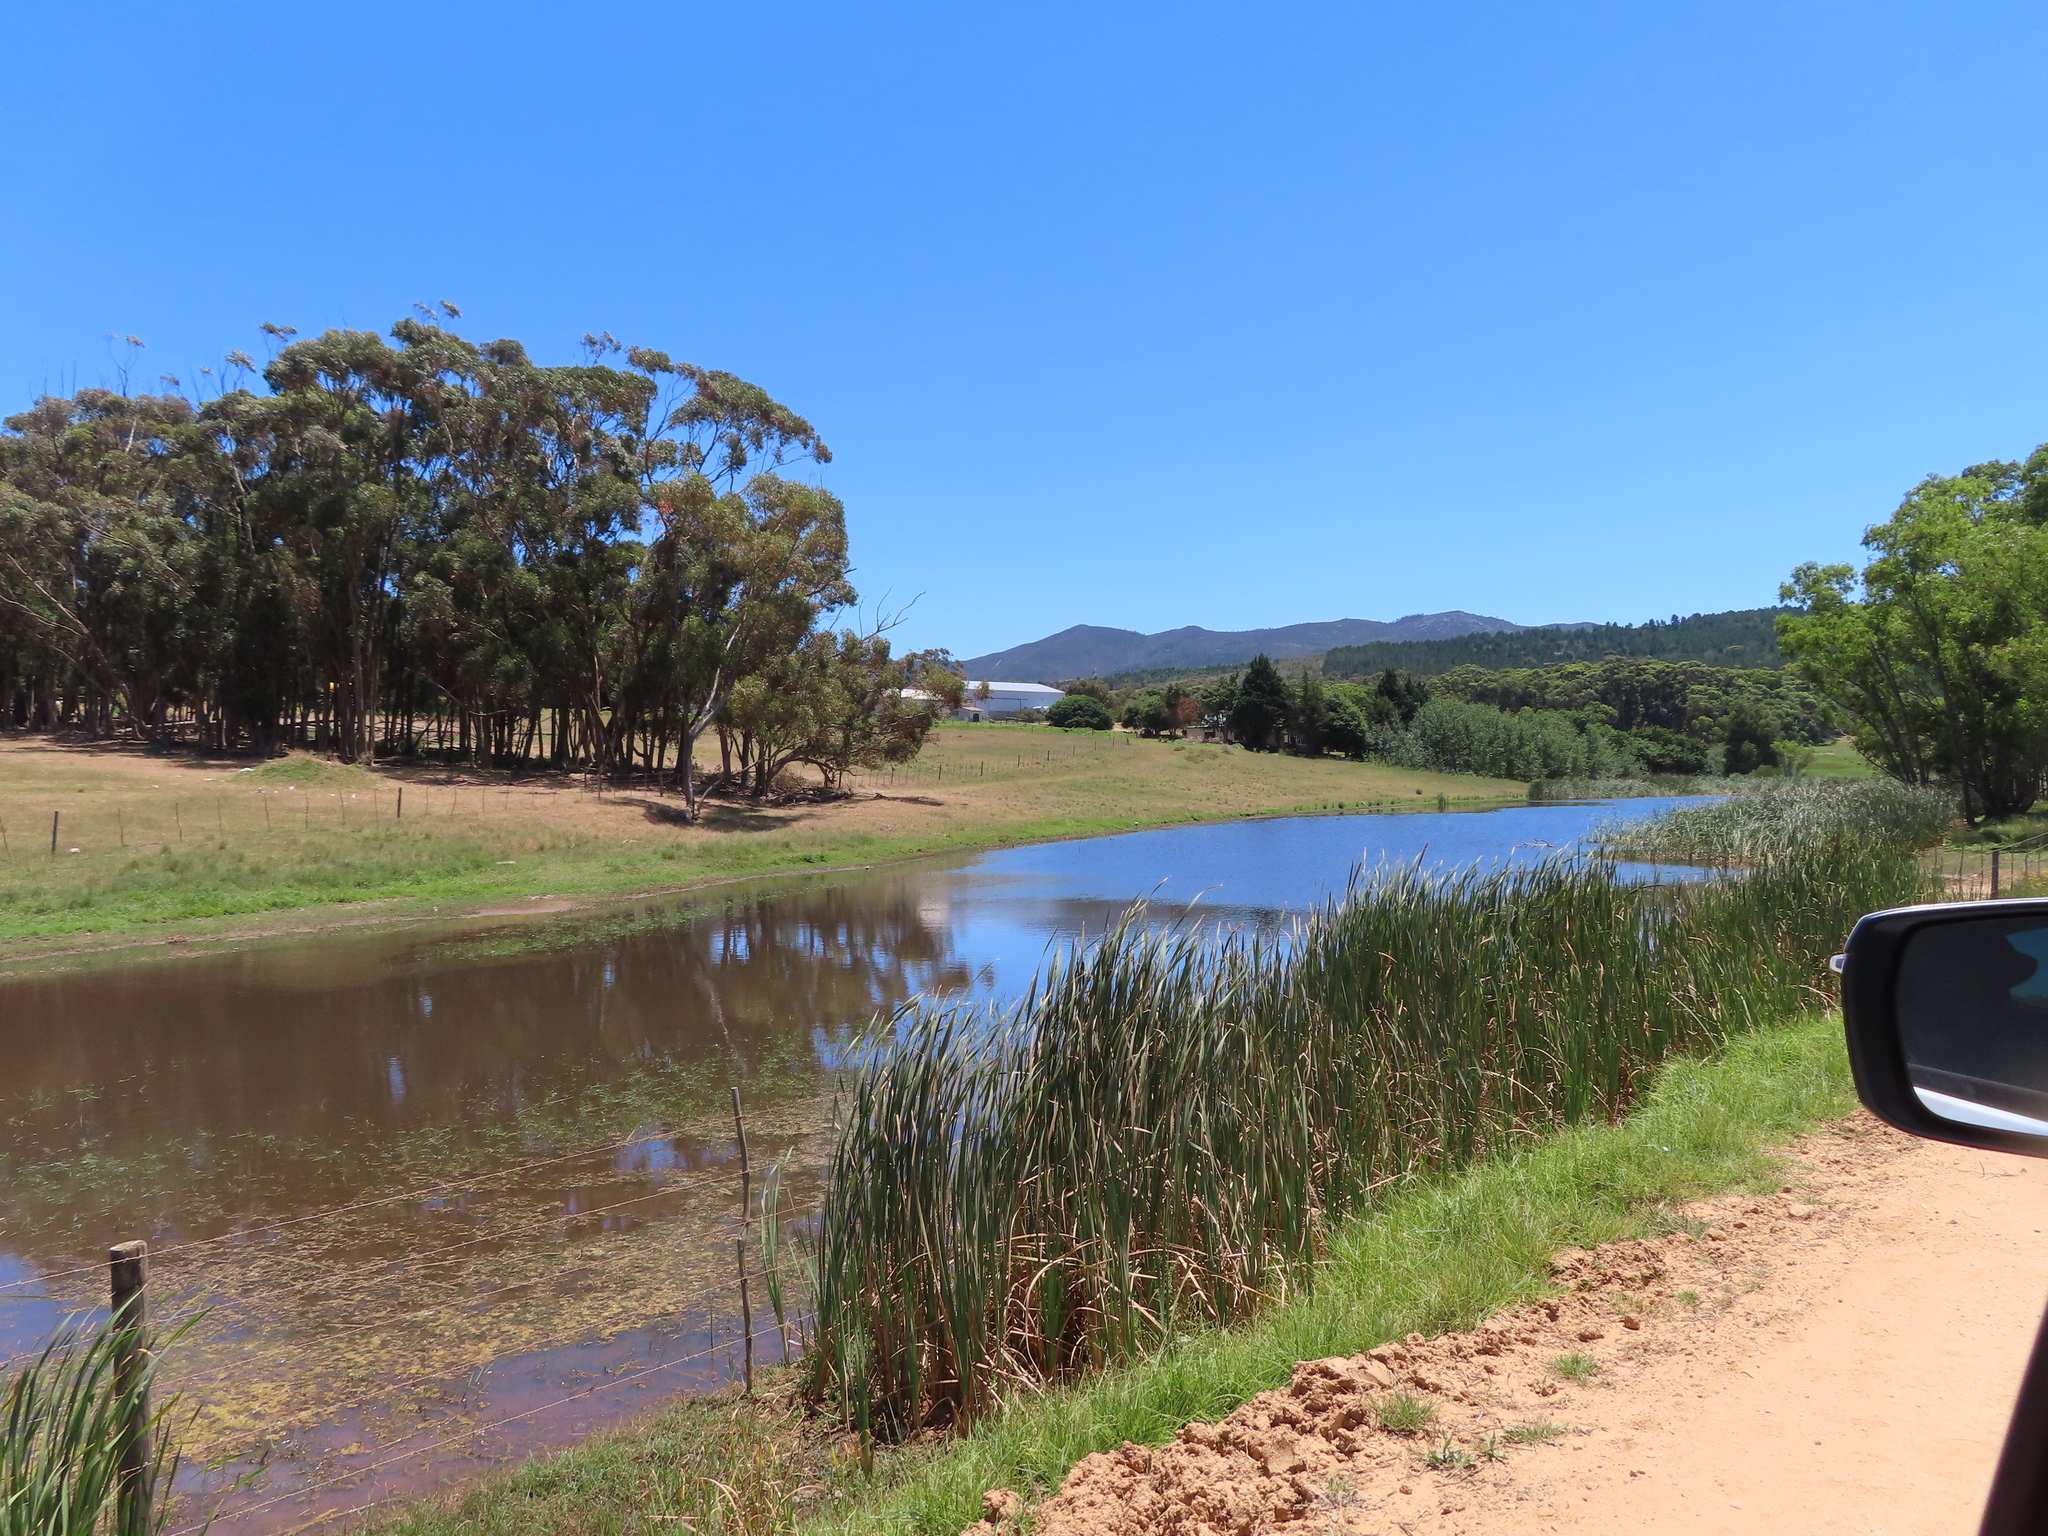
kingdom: Plantae
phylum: Tracheophyta
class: Liliopsida
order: Poales
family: Typhaceae
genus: Typha
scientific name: Typha capensis
